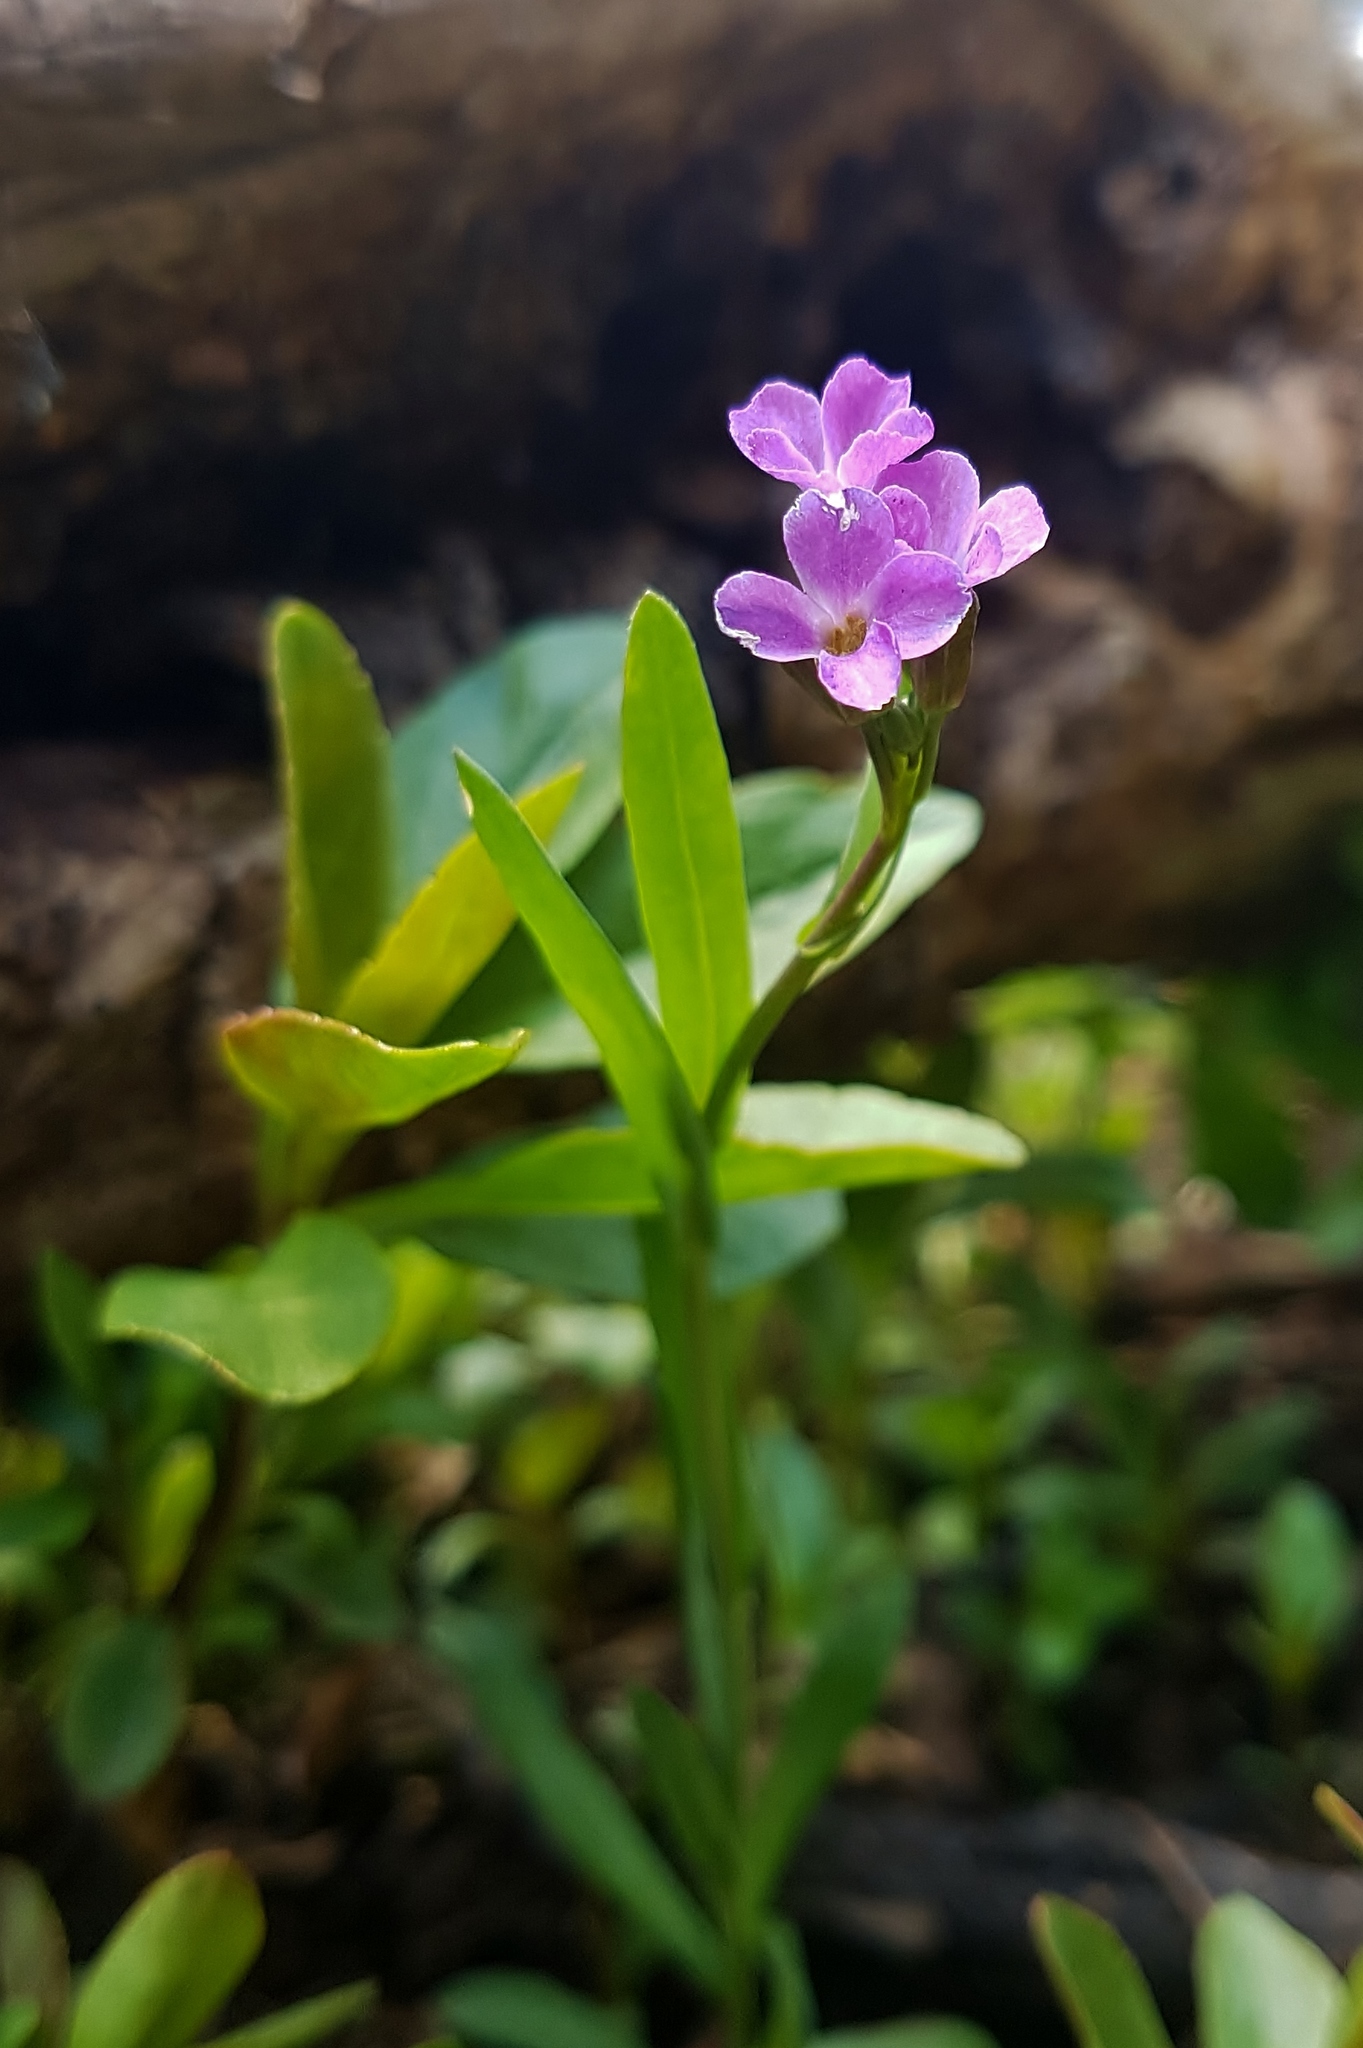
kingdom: Plantae
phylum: Tracheophyta
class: Magnoliopsida
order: Brassicales
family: Brassicaceae
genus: Boechera
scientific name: Boechera lyallii
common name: Lyall's rockcress
